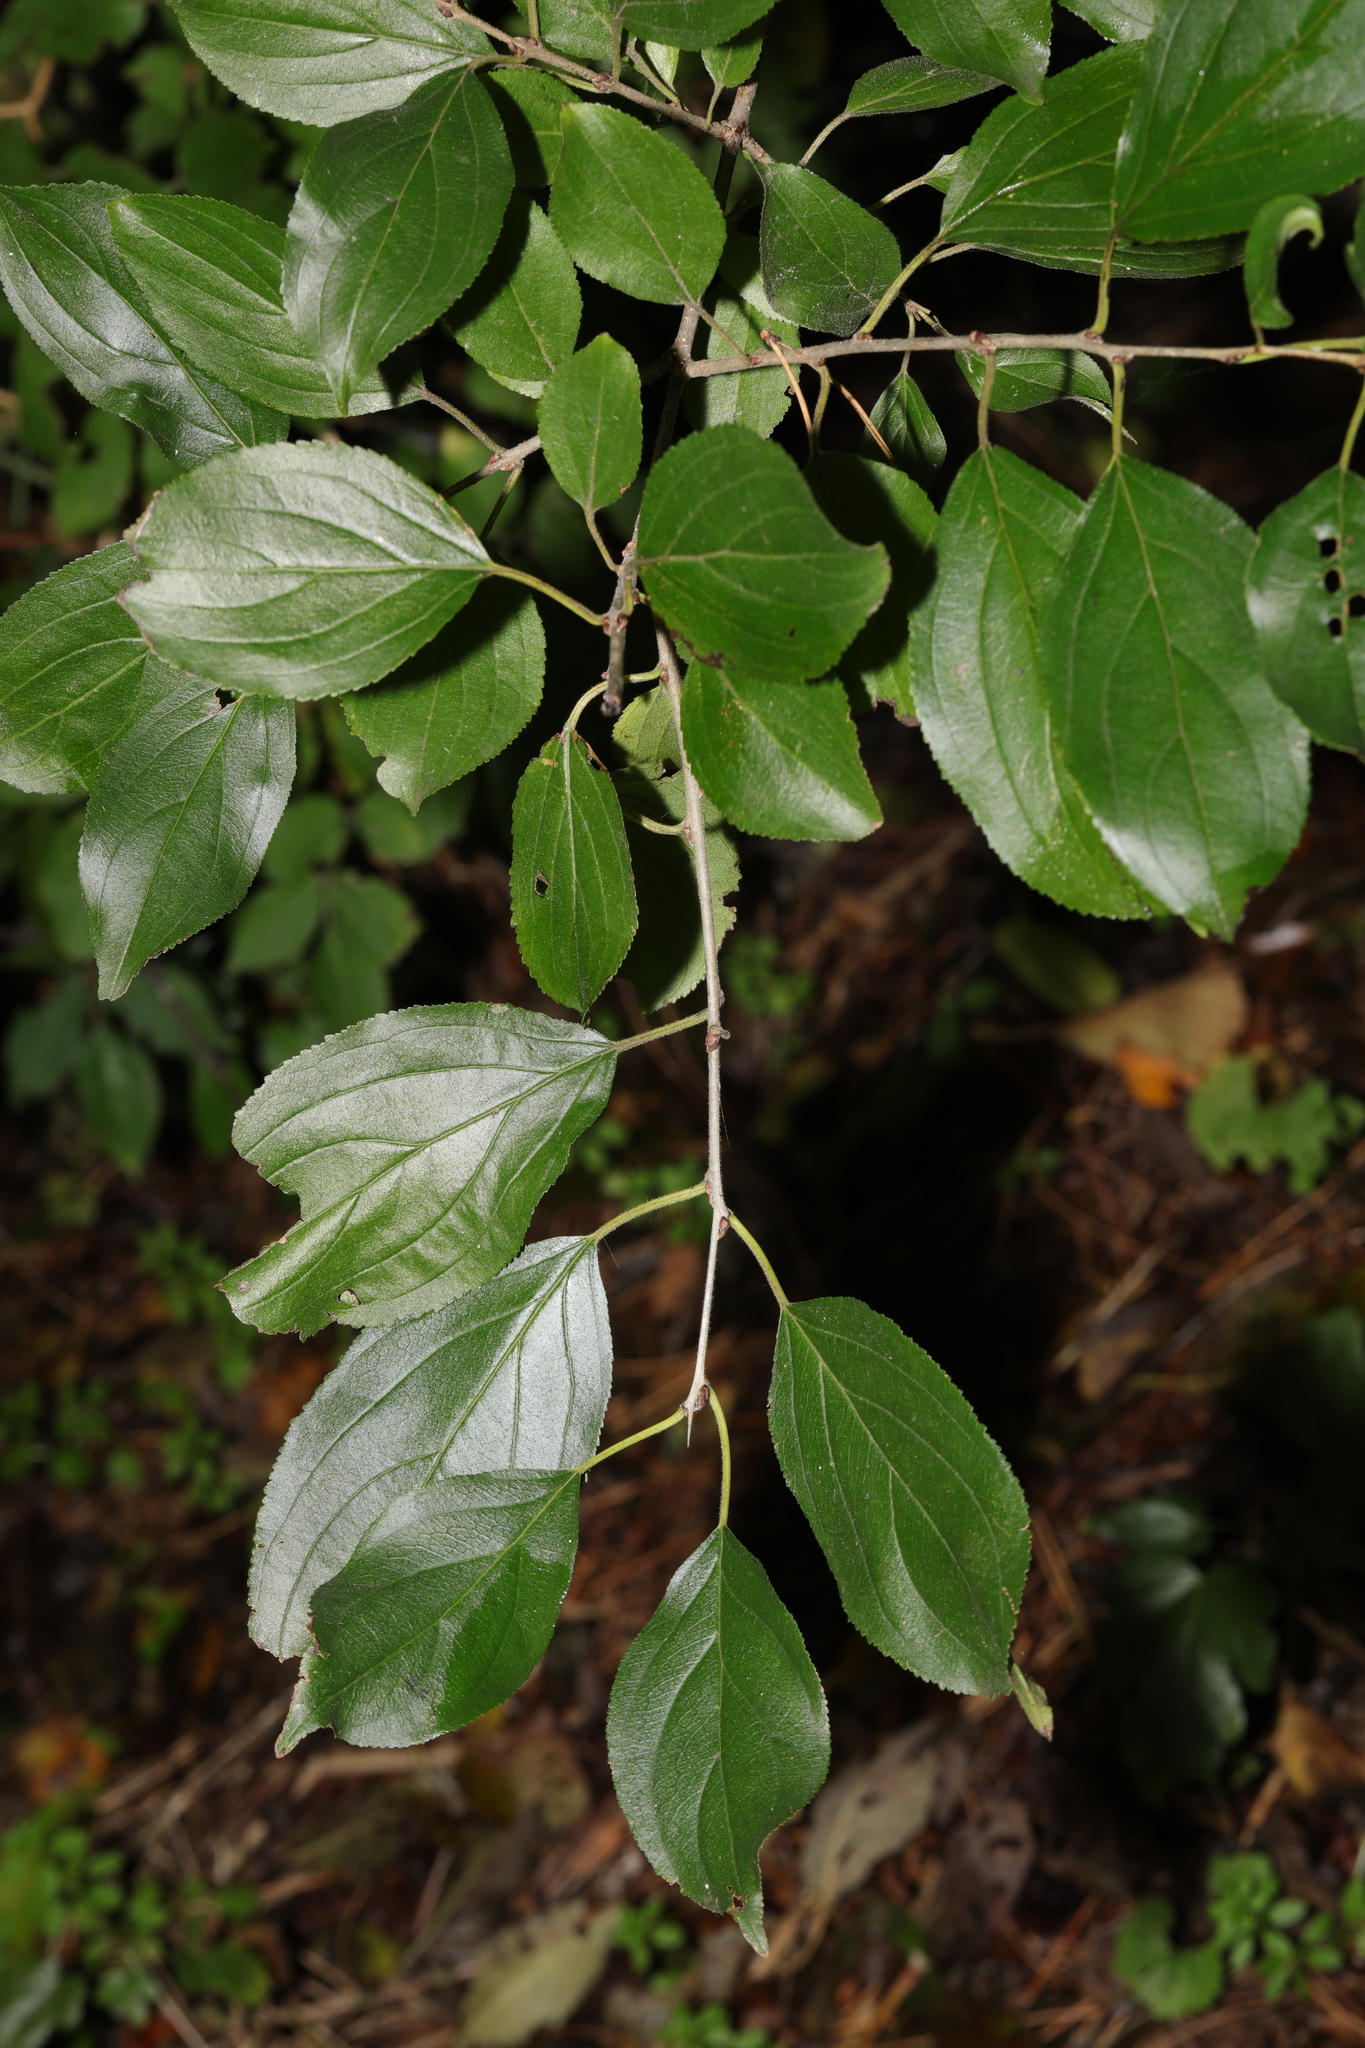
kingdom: Plantae
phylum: Tracheophyta
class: Magnoliopsida
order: Rosales
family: Rhamnaceae
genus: Rhamnus
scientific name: Rhamnus cathartica
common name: Common buckthorn
